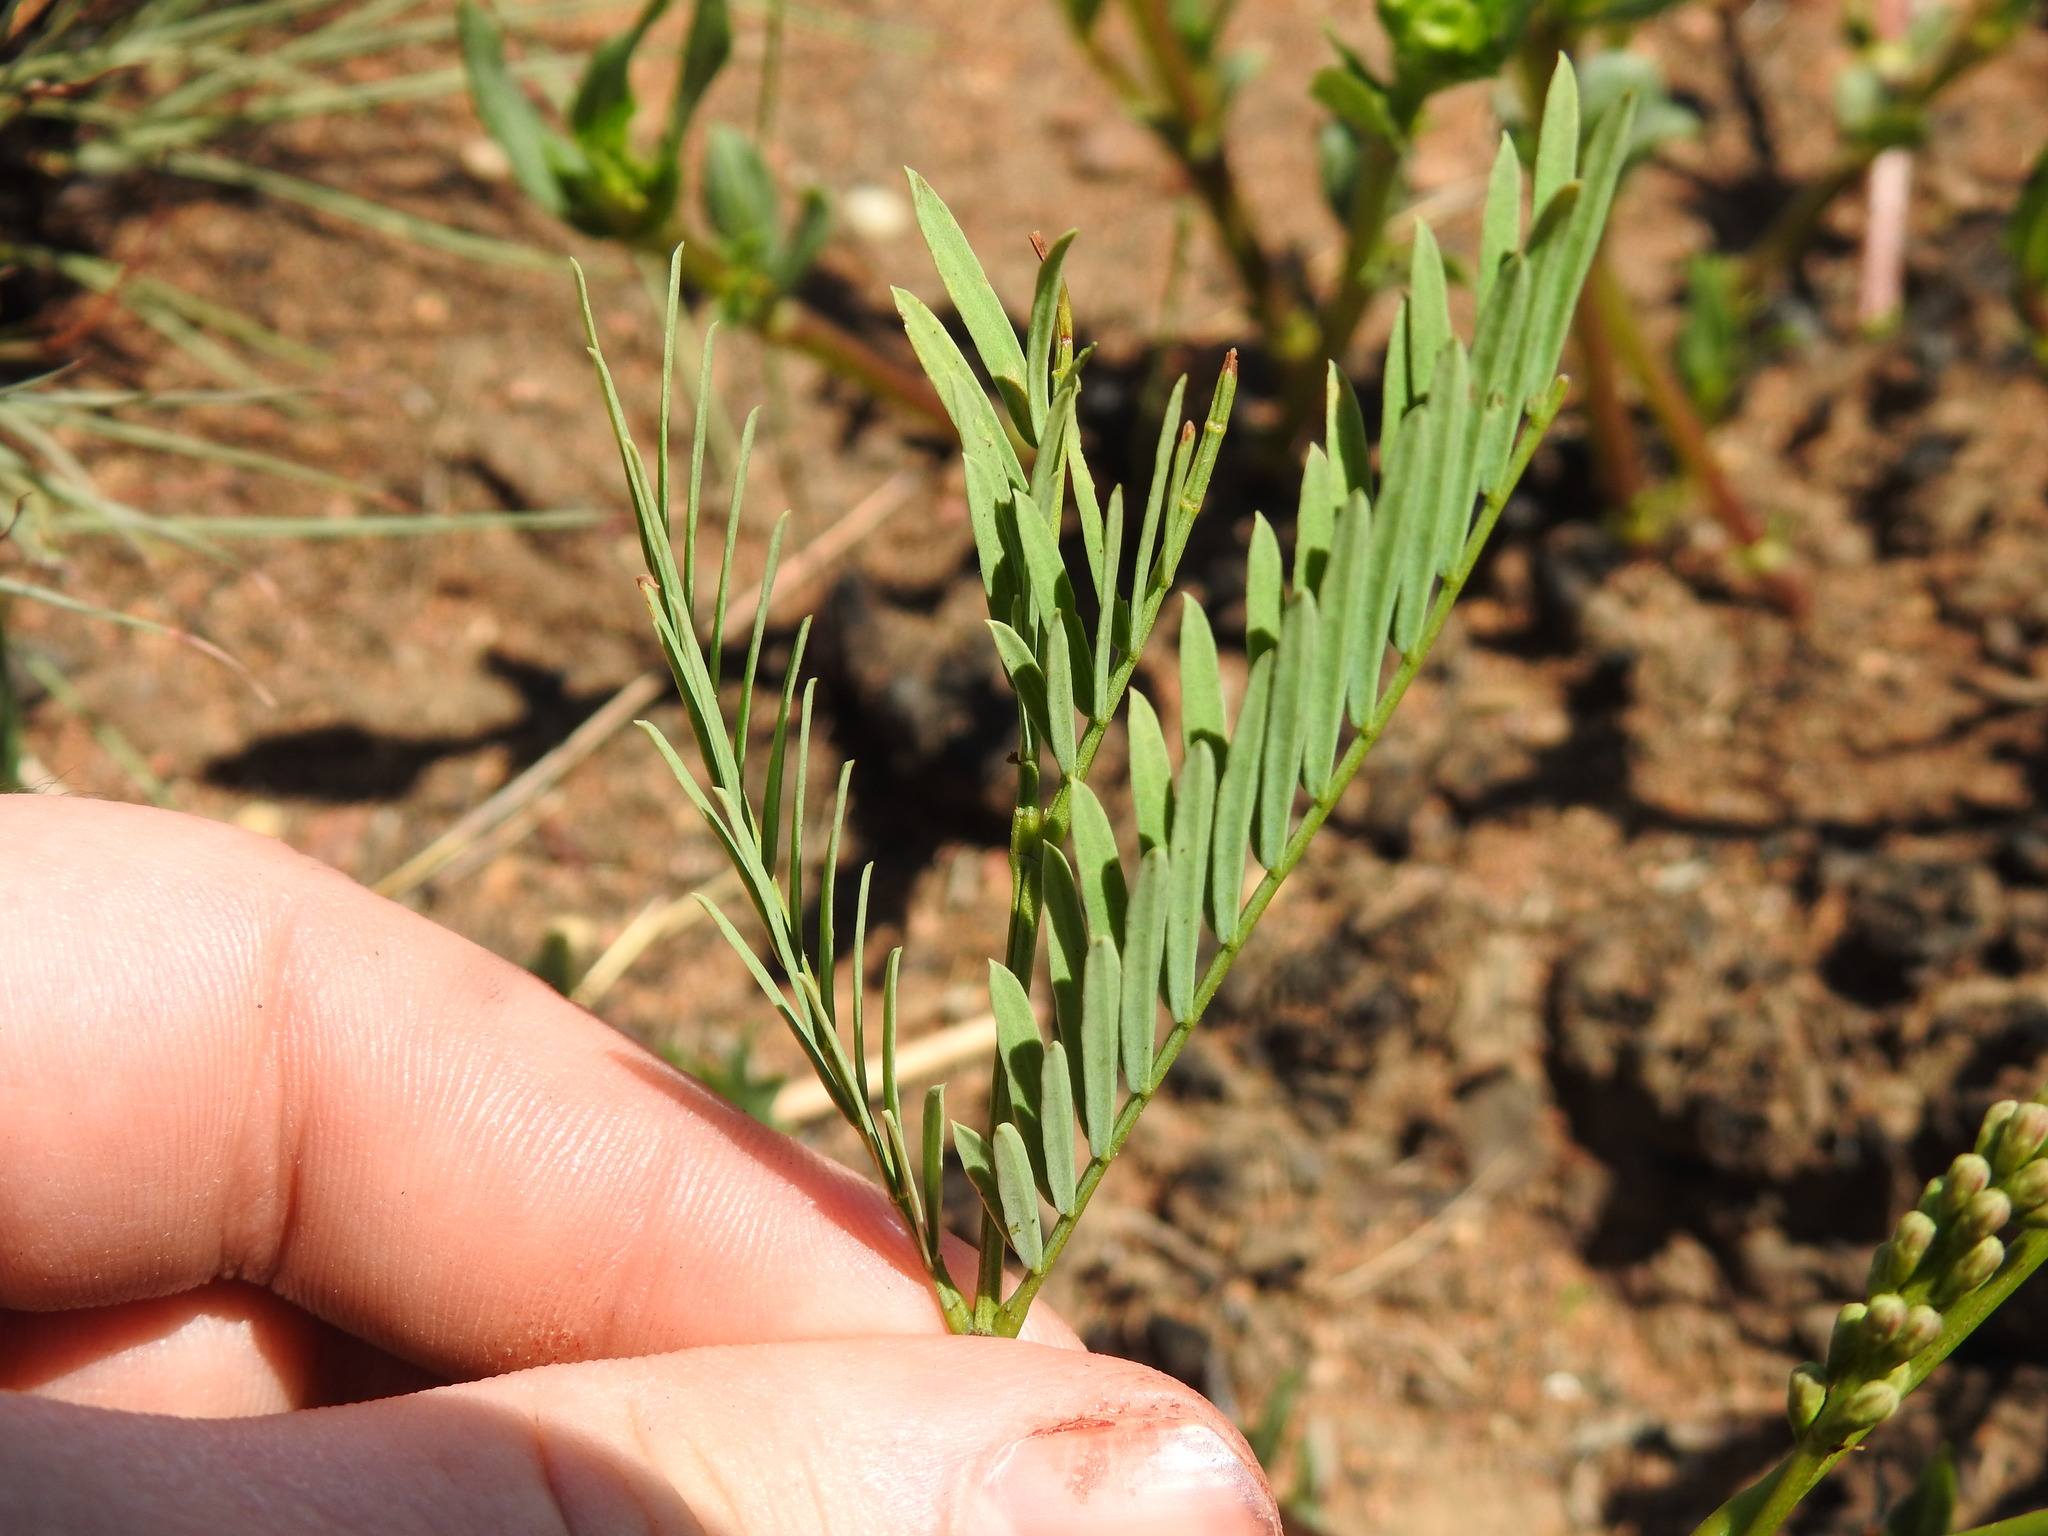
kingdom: Plantae
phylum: Tracheophyta
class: Magnoliopsida
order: Fabales
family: Fabaceae
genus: Elephantorrhiza
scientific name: Elephantorrhiza elephantina
